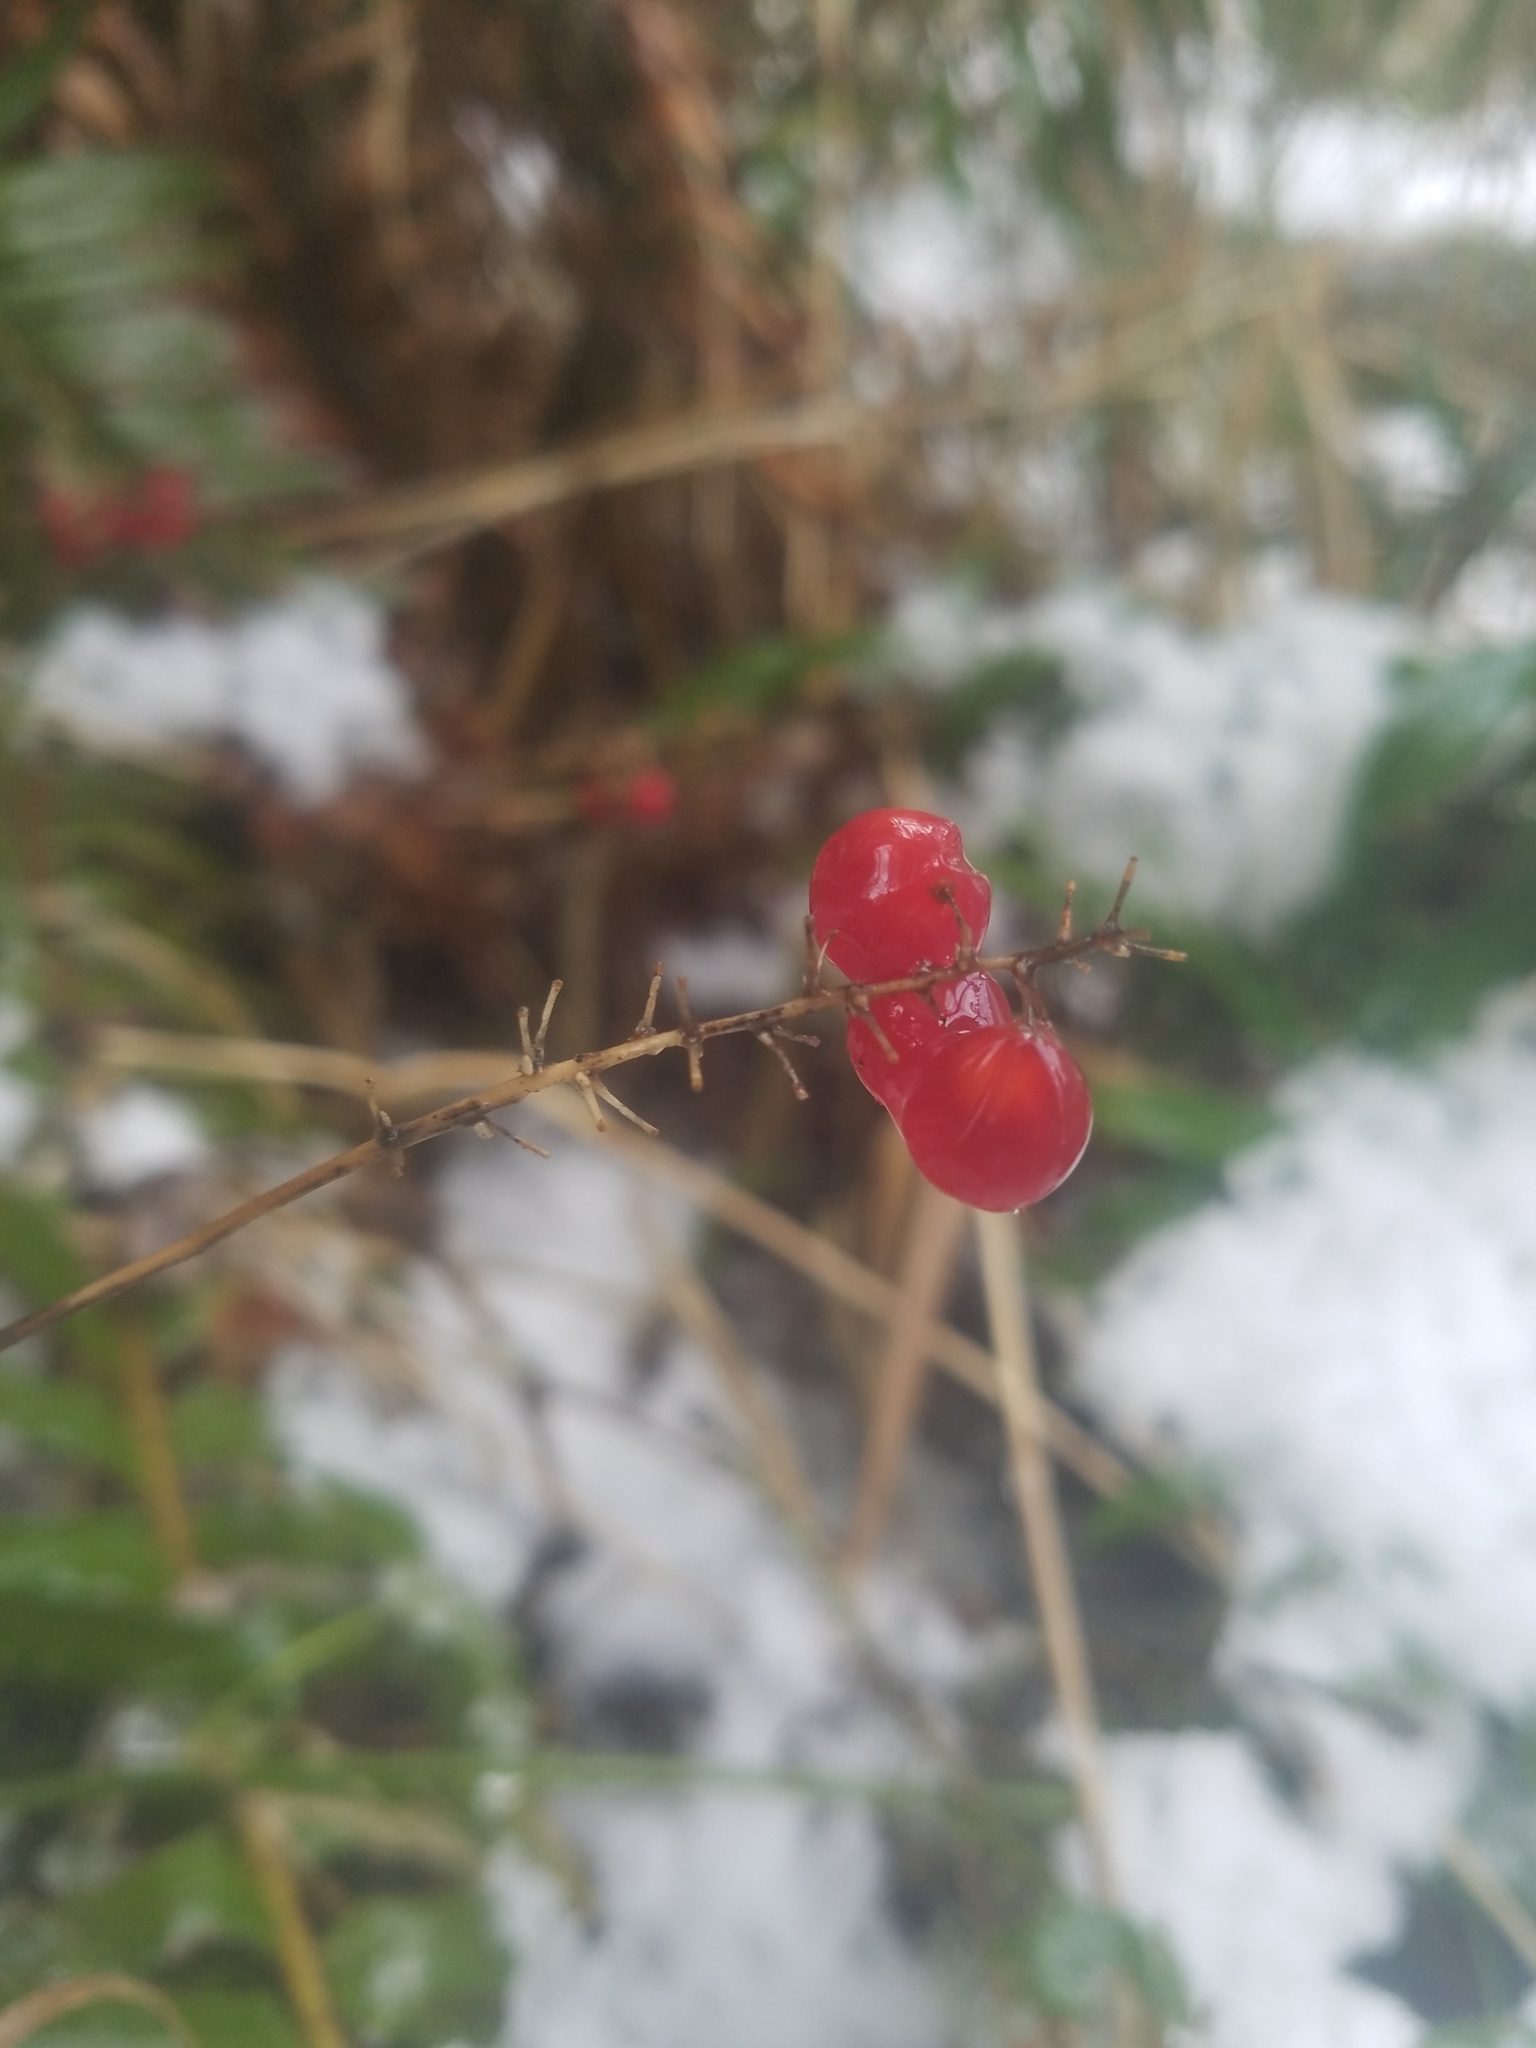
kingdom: Plantae
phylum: Tracheophyta
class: Liliopsida
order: Asparagales
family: Asparagaceae
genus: Maianthemum
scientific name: Maianthemum dilatatum
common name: False lily-of-the-valley
